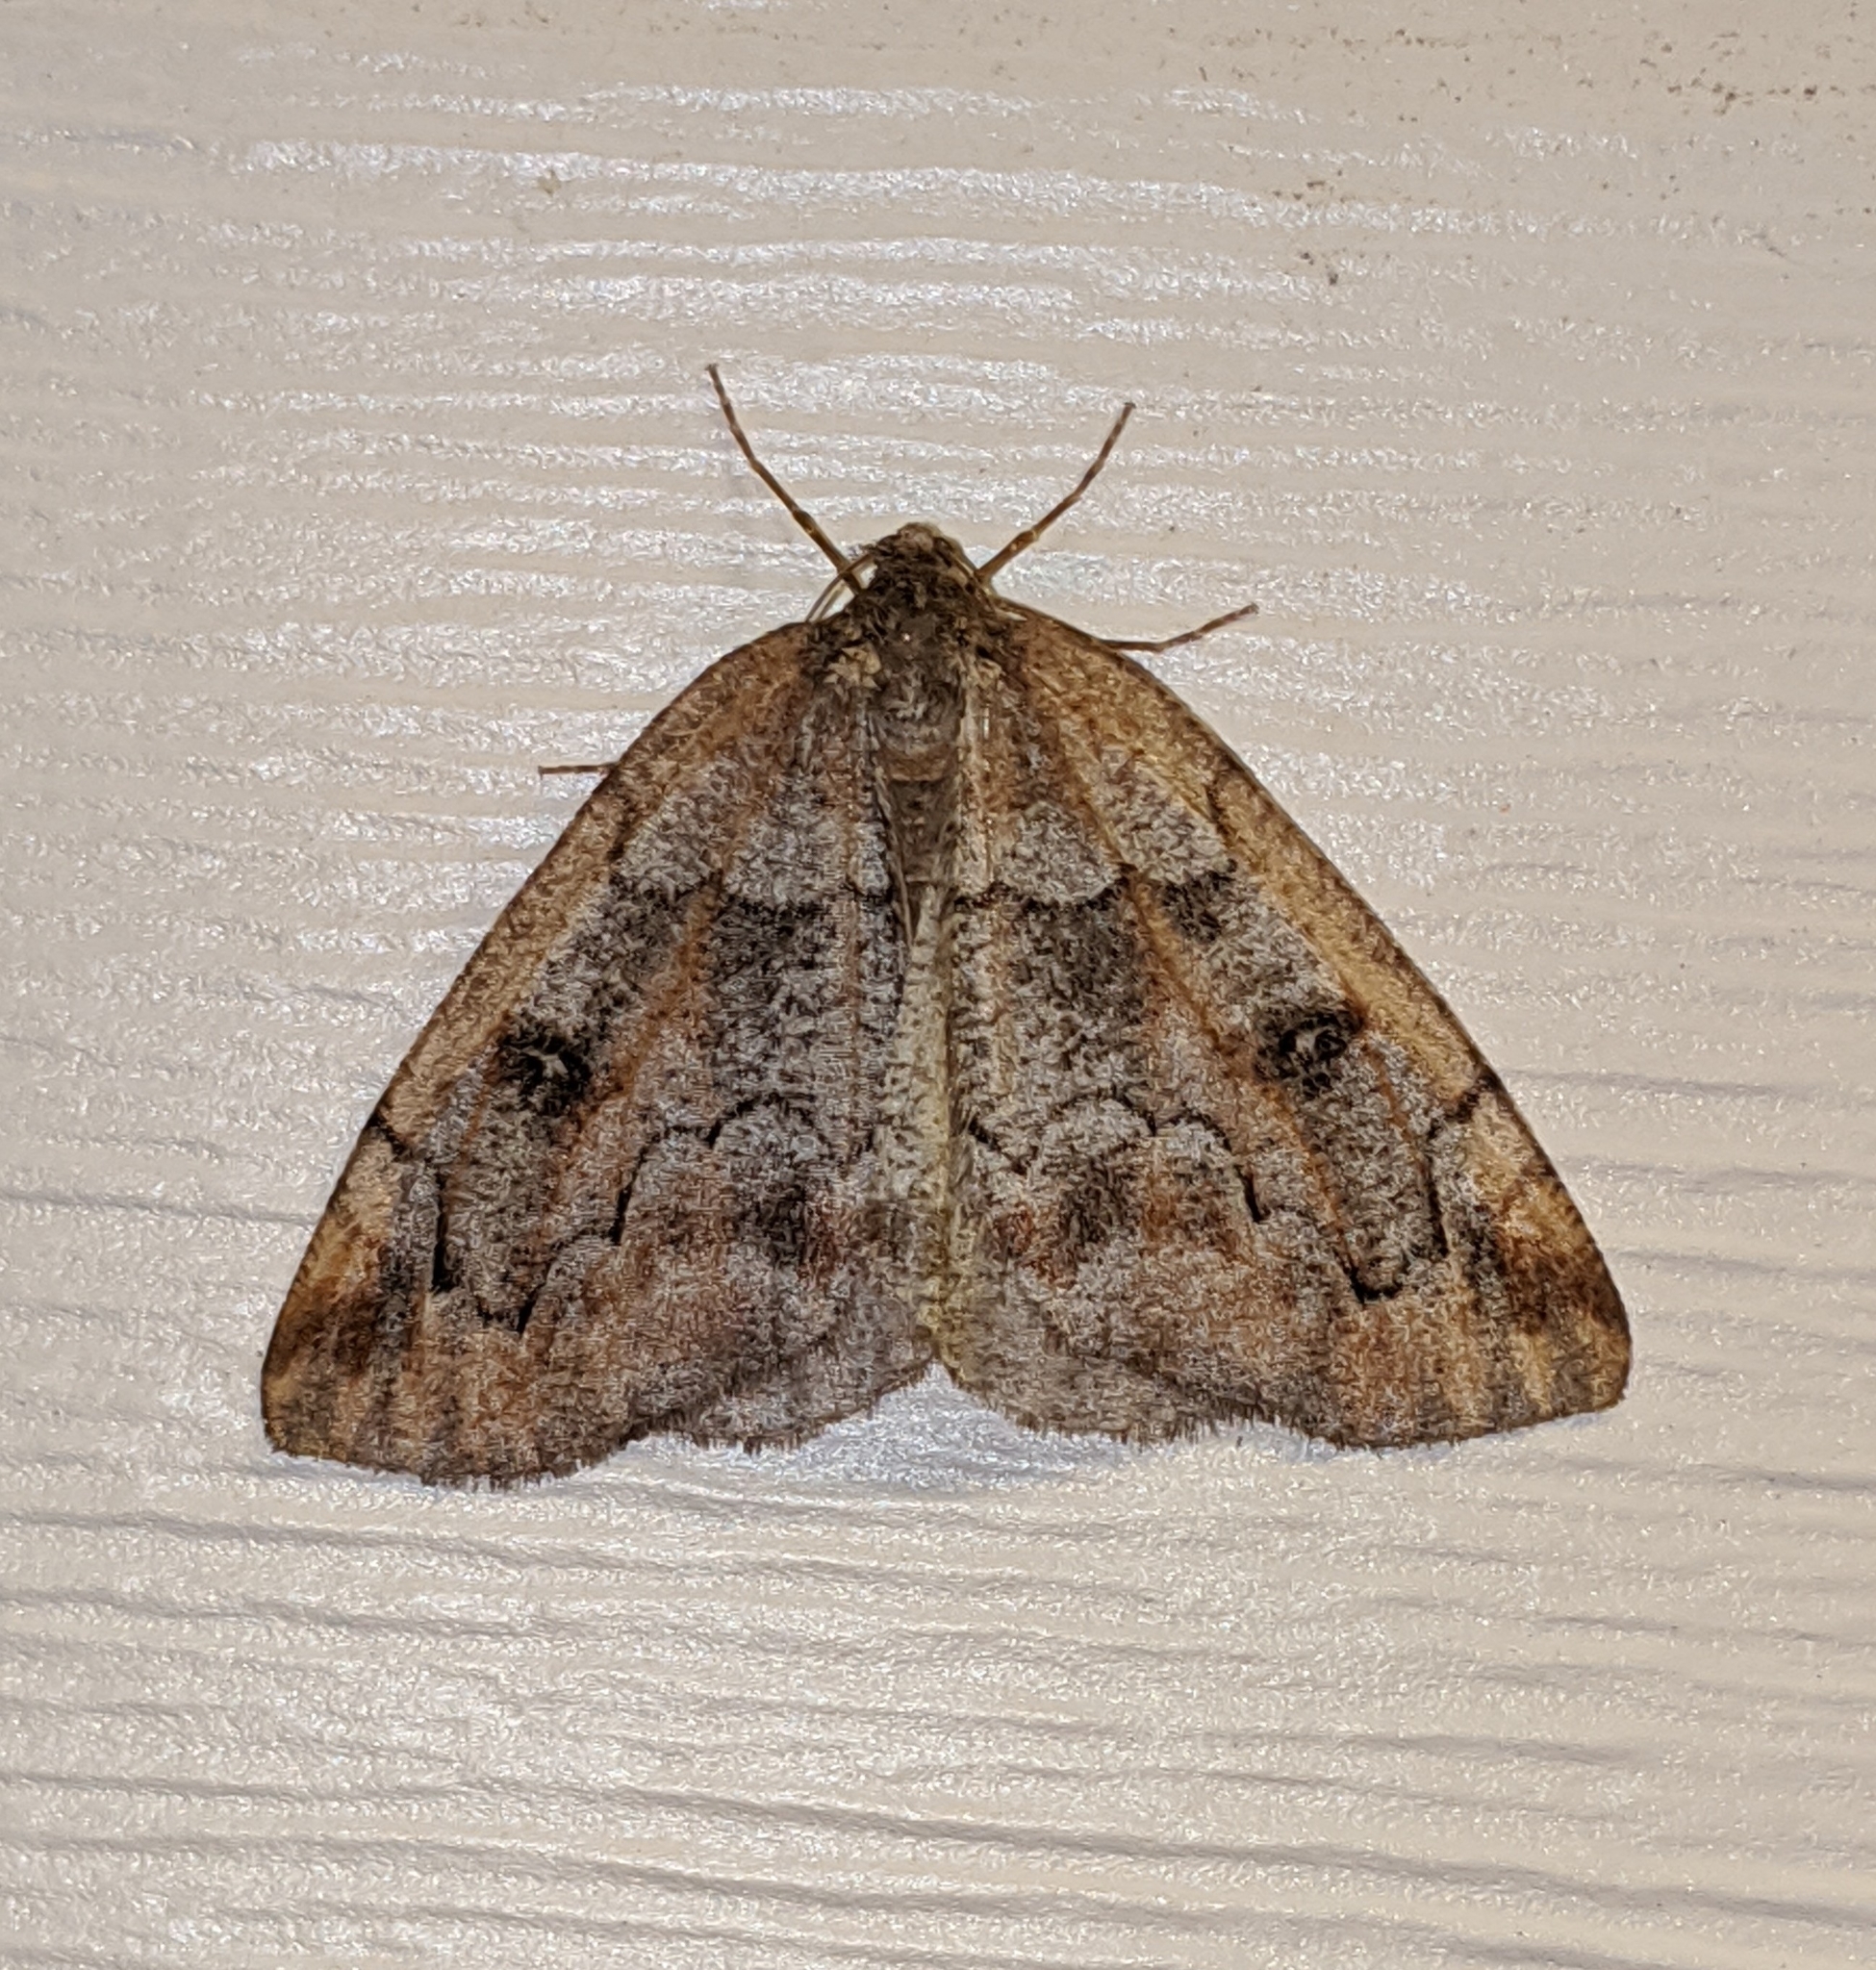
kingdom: Animalia
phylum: Arthropoda
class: Insecta
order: Lepidoptera
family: Geometridae
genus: Spodolepis
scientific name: Spodolepis danbyi
